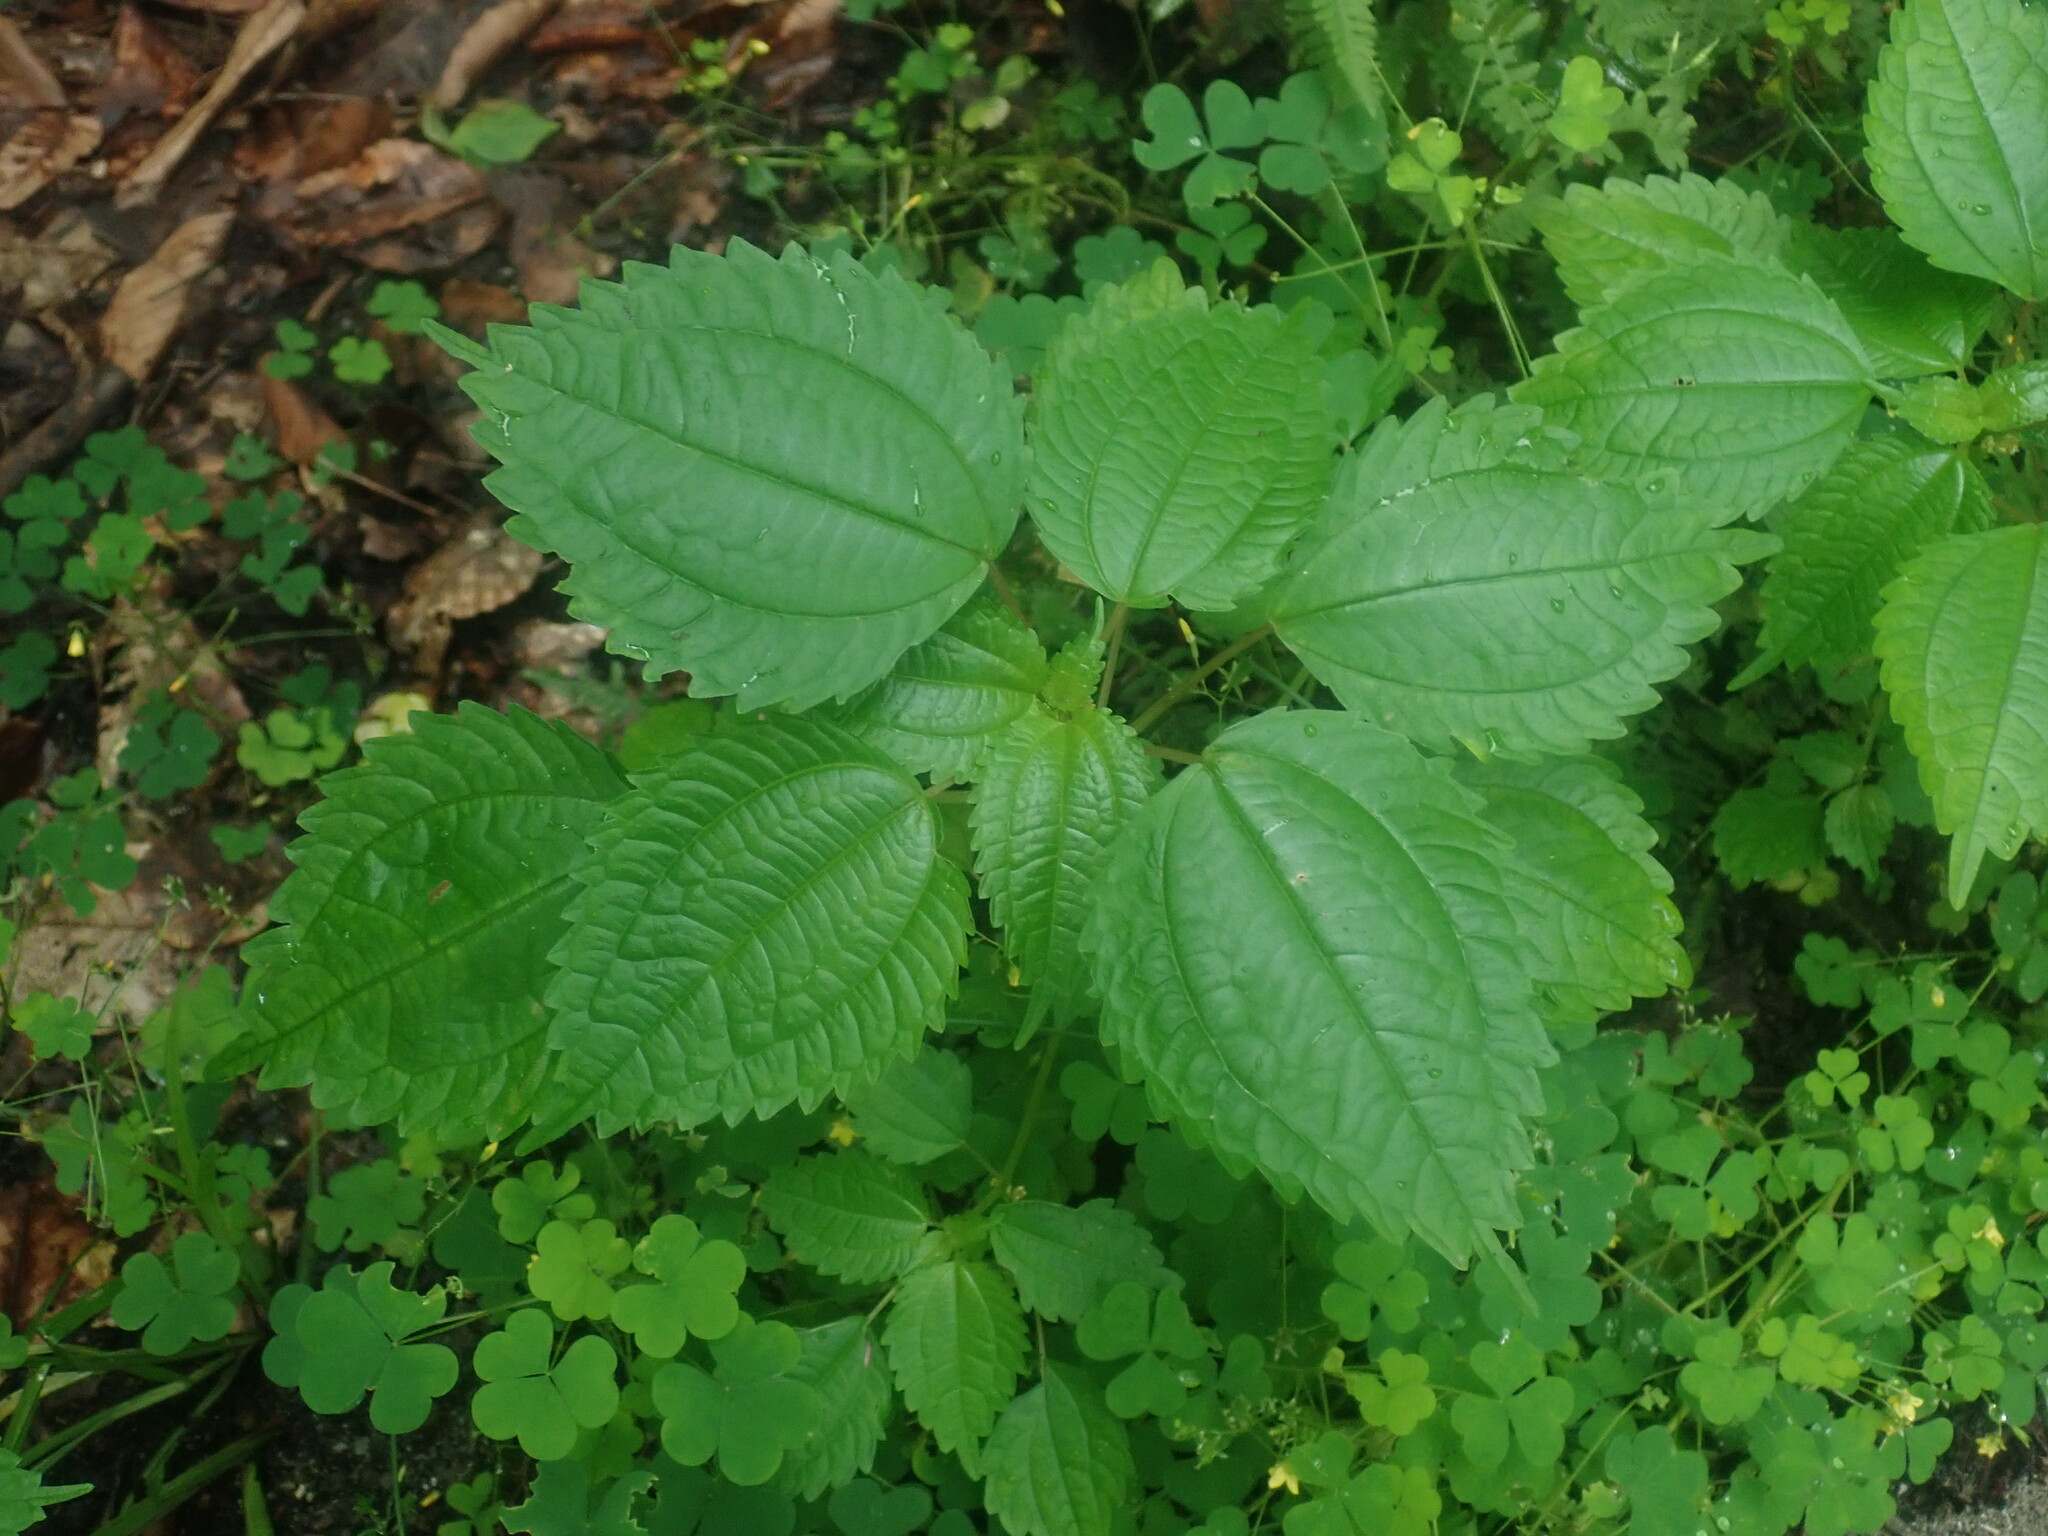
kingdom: Plantae
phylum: Tracheophyta
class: Magnoliopsida
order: Rosales
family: Urticaceae
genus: Pilea
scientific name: Pilea pumila
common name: Clearweed
